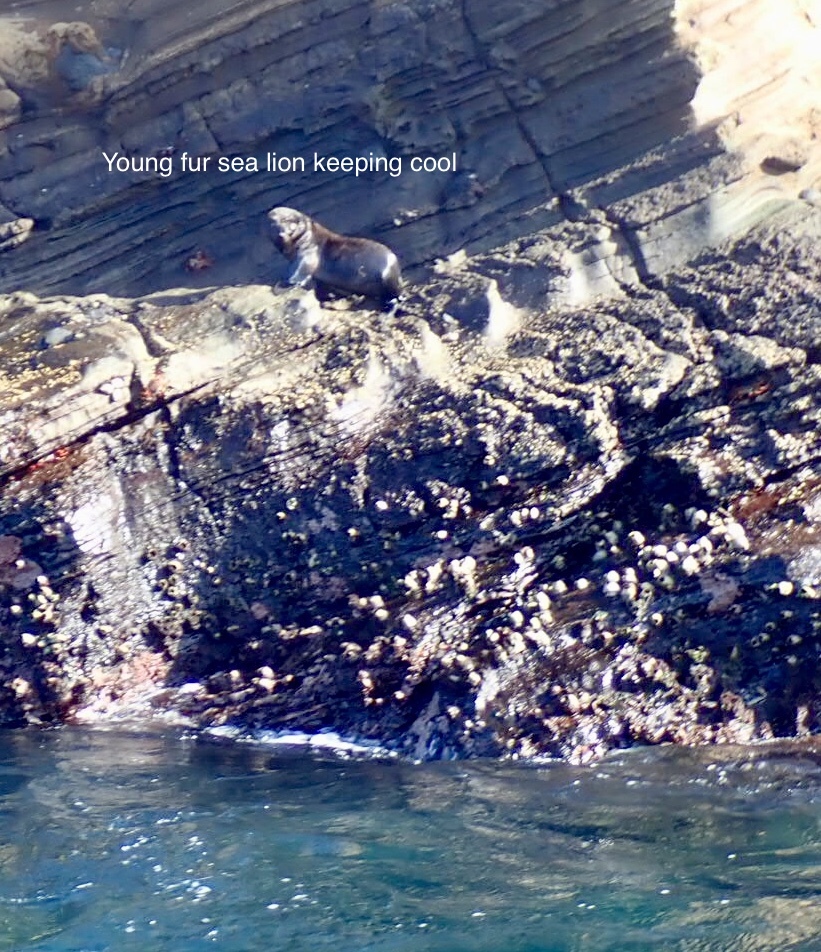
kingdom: Animalia
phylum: Chordata
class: Mammalia
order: Carnivora
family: Otariidae
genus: Arctocephalus
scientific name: Arctocephalus galapagoensis
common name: Galapagos fur seal
